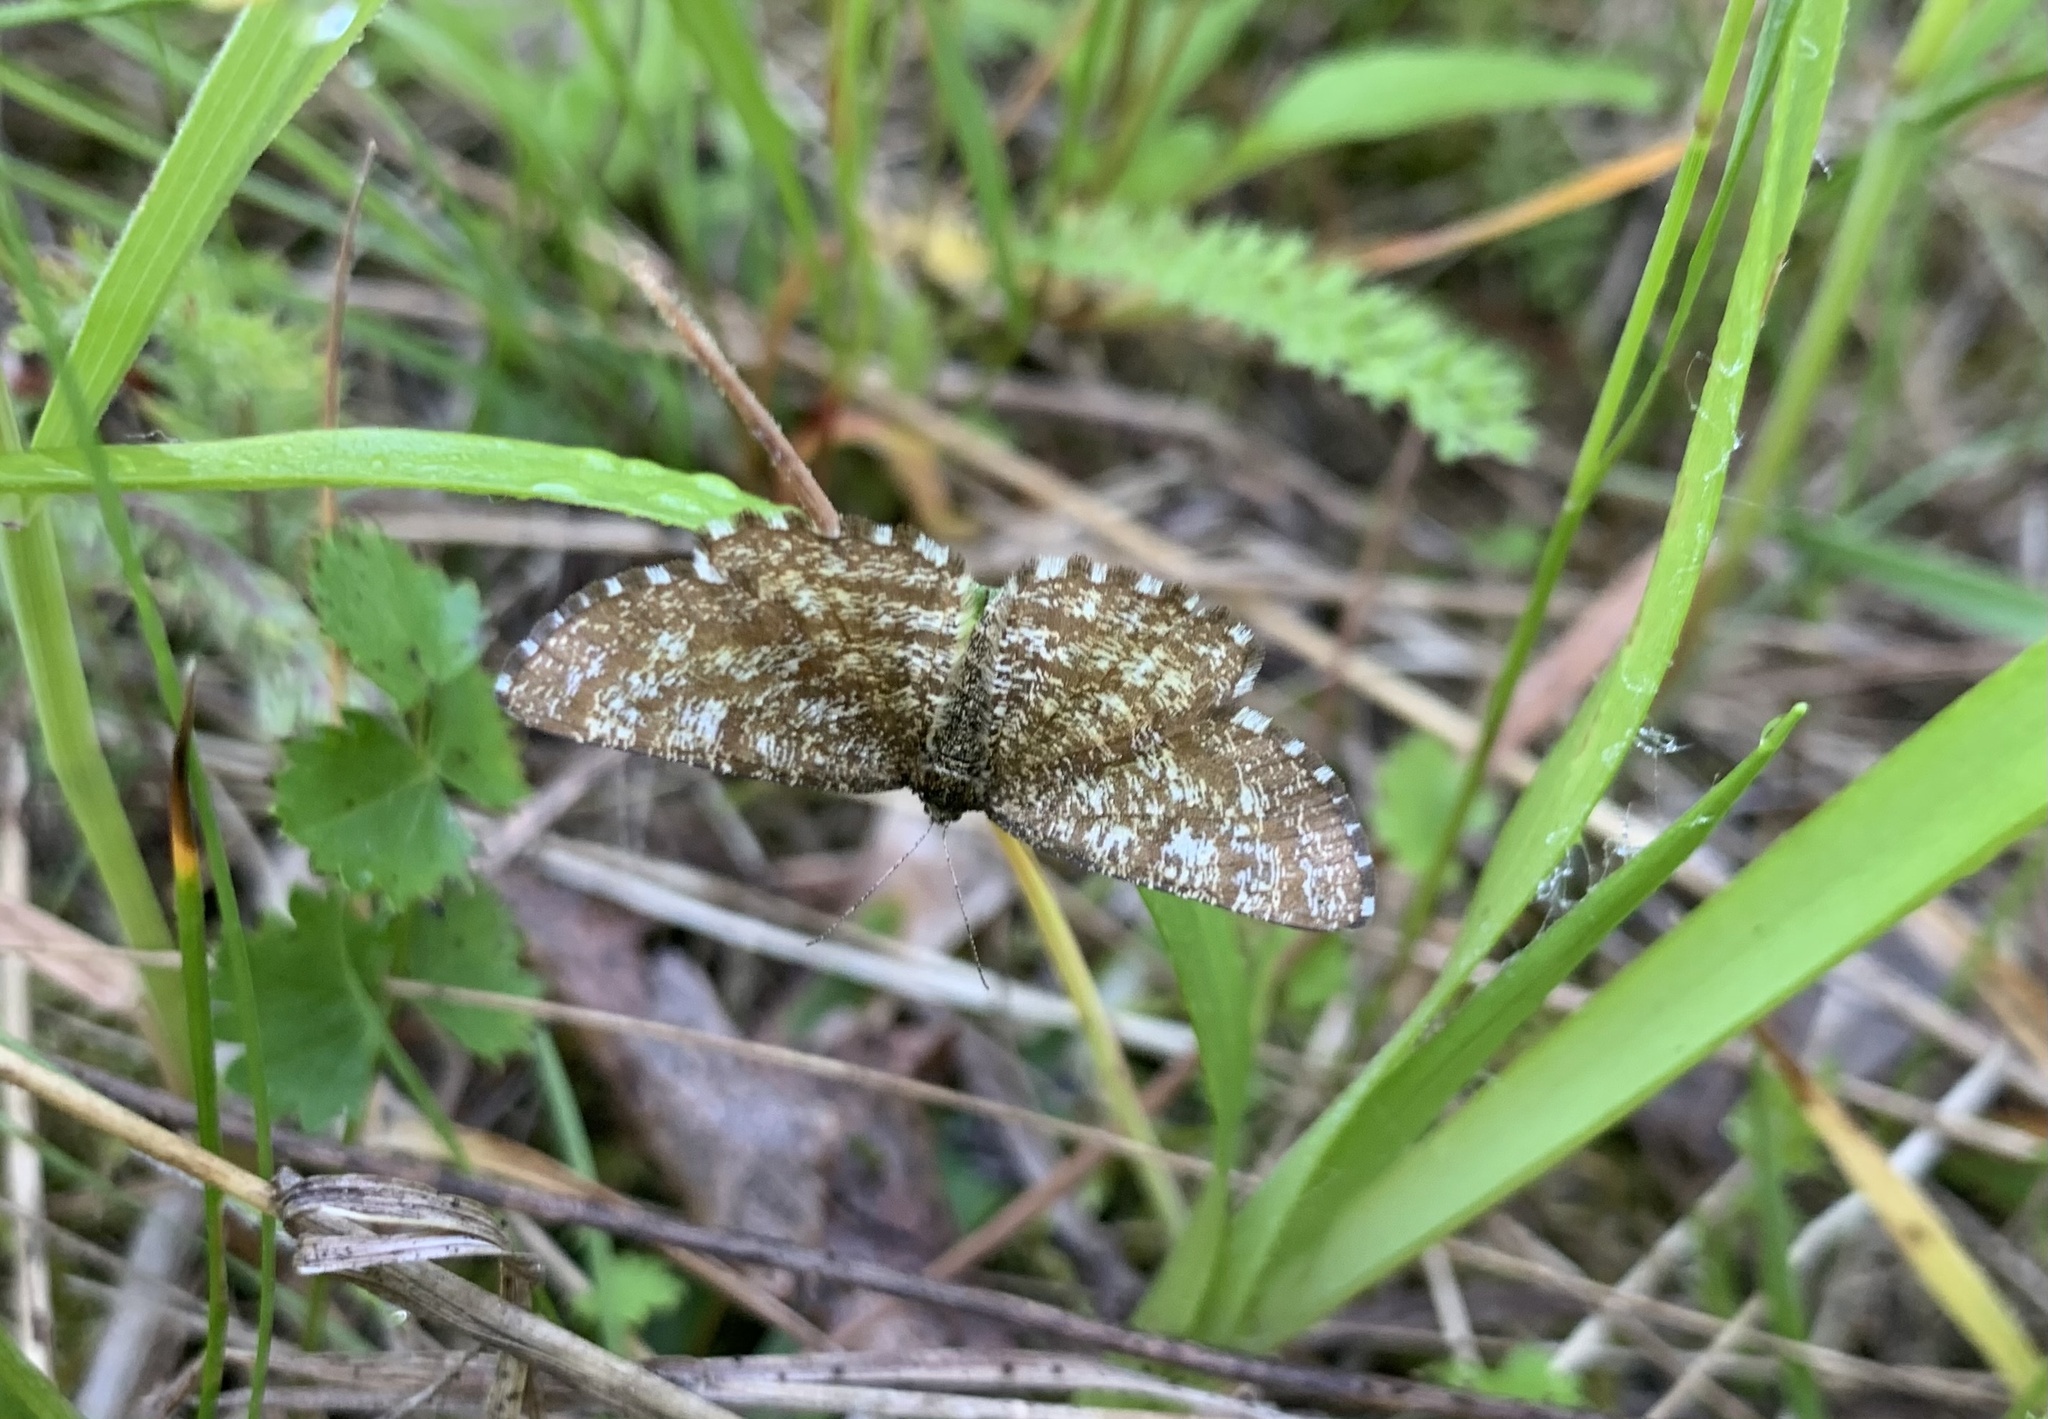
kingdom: Animalia
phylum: Arthropoda
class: Insecta
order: Lepidoptera
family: Geometridae
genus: Ematurga
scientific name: Ematurga atomaria
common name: Common heath
